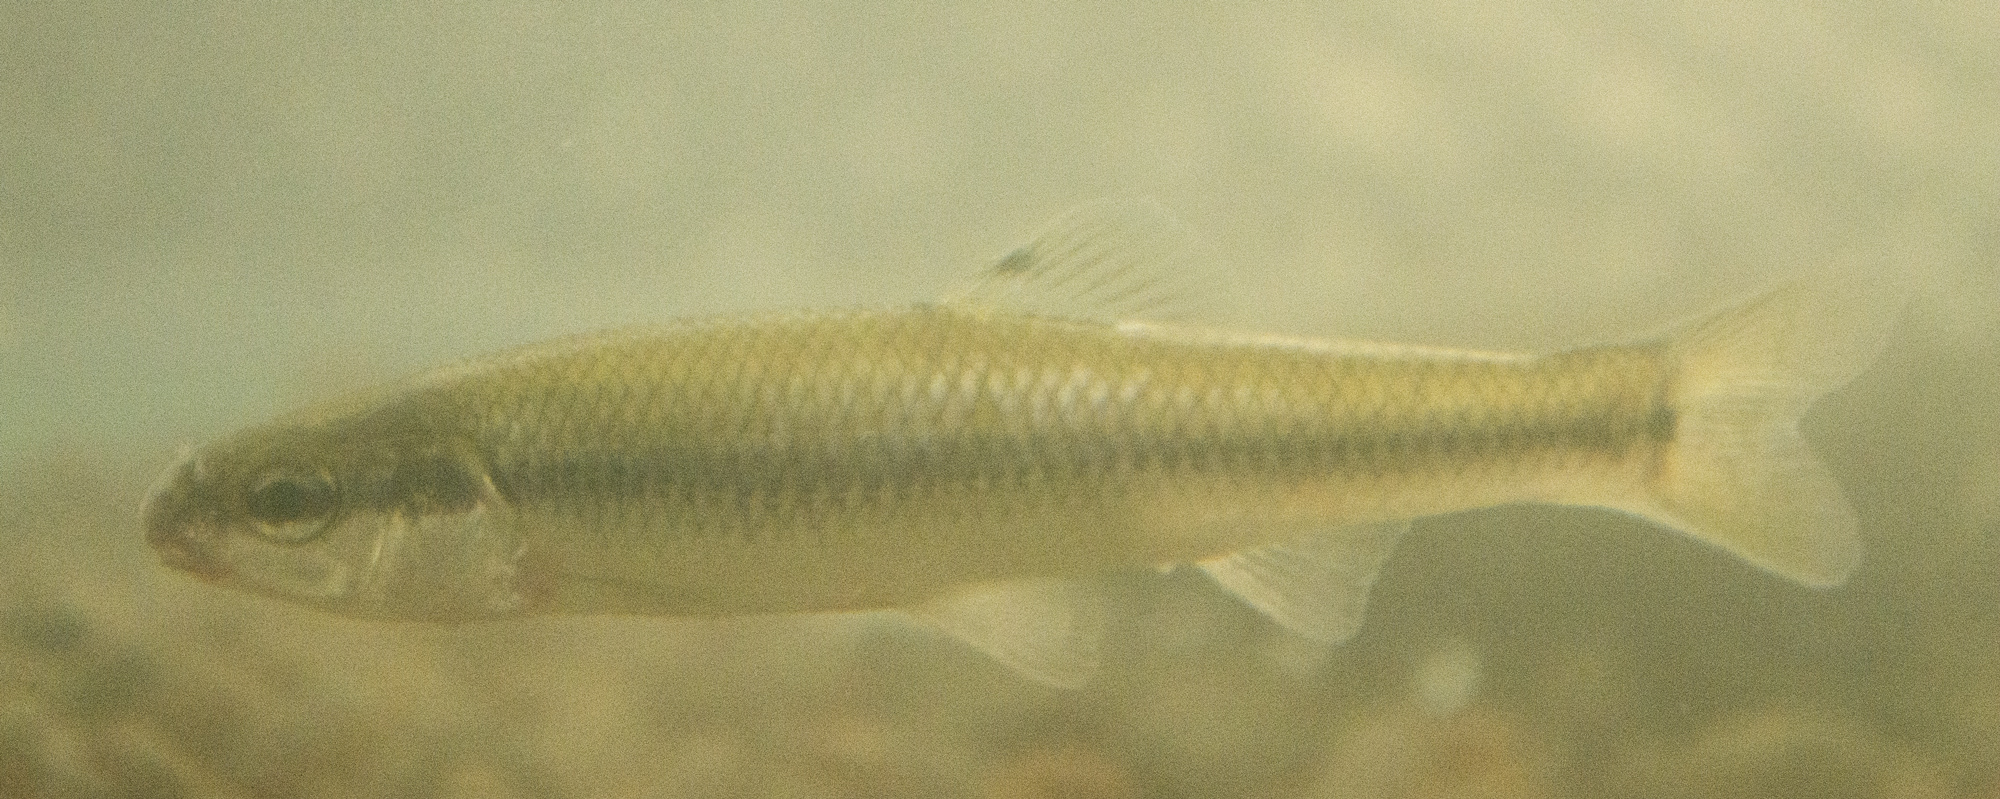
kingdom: Animalia
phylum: Chordata
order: Cypriniformes
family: Cyprinidae
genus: Pimephales
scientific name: Pimephales notatus
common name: Bluntnose minnow
